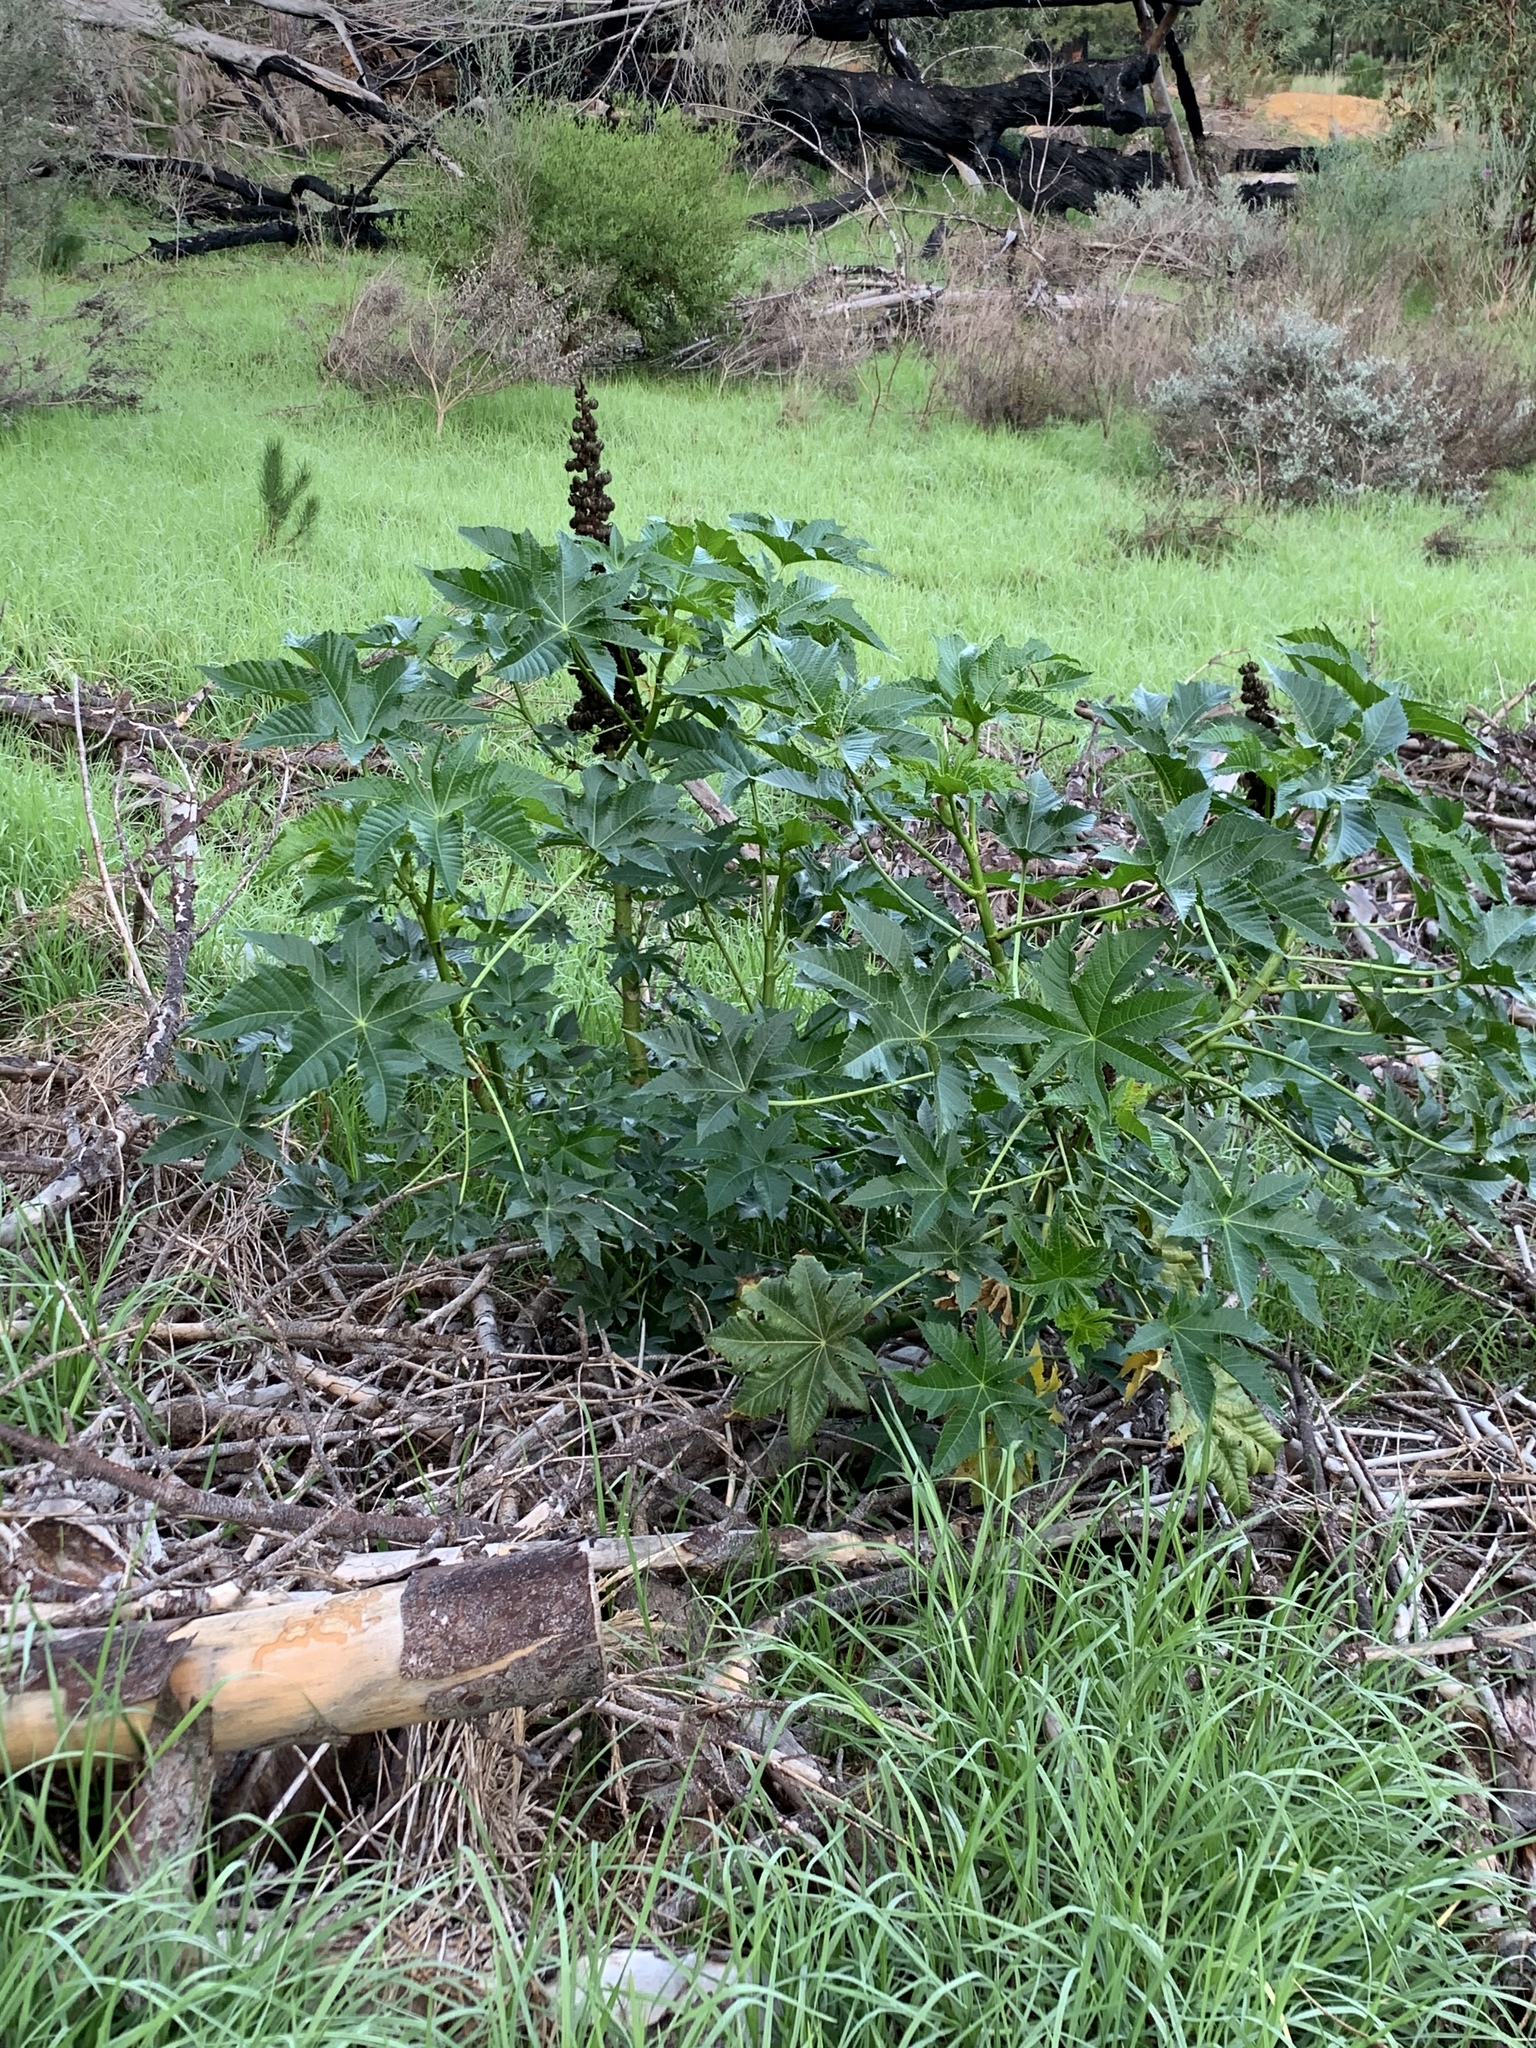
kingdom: Plantae
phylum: Tracheophyta
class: Magnoliopsida
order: Malpighiales
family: Euphorbiaceae
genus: Ricinus
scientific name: Ricinus communis
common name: Castor-oil-plant
